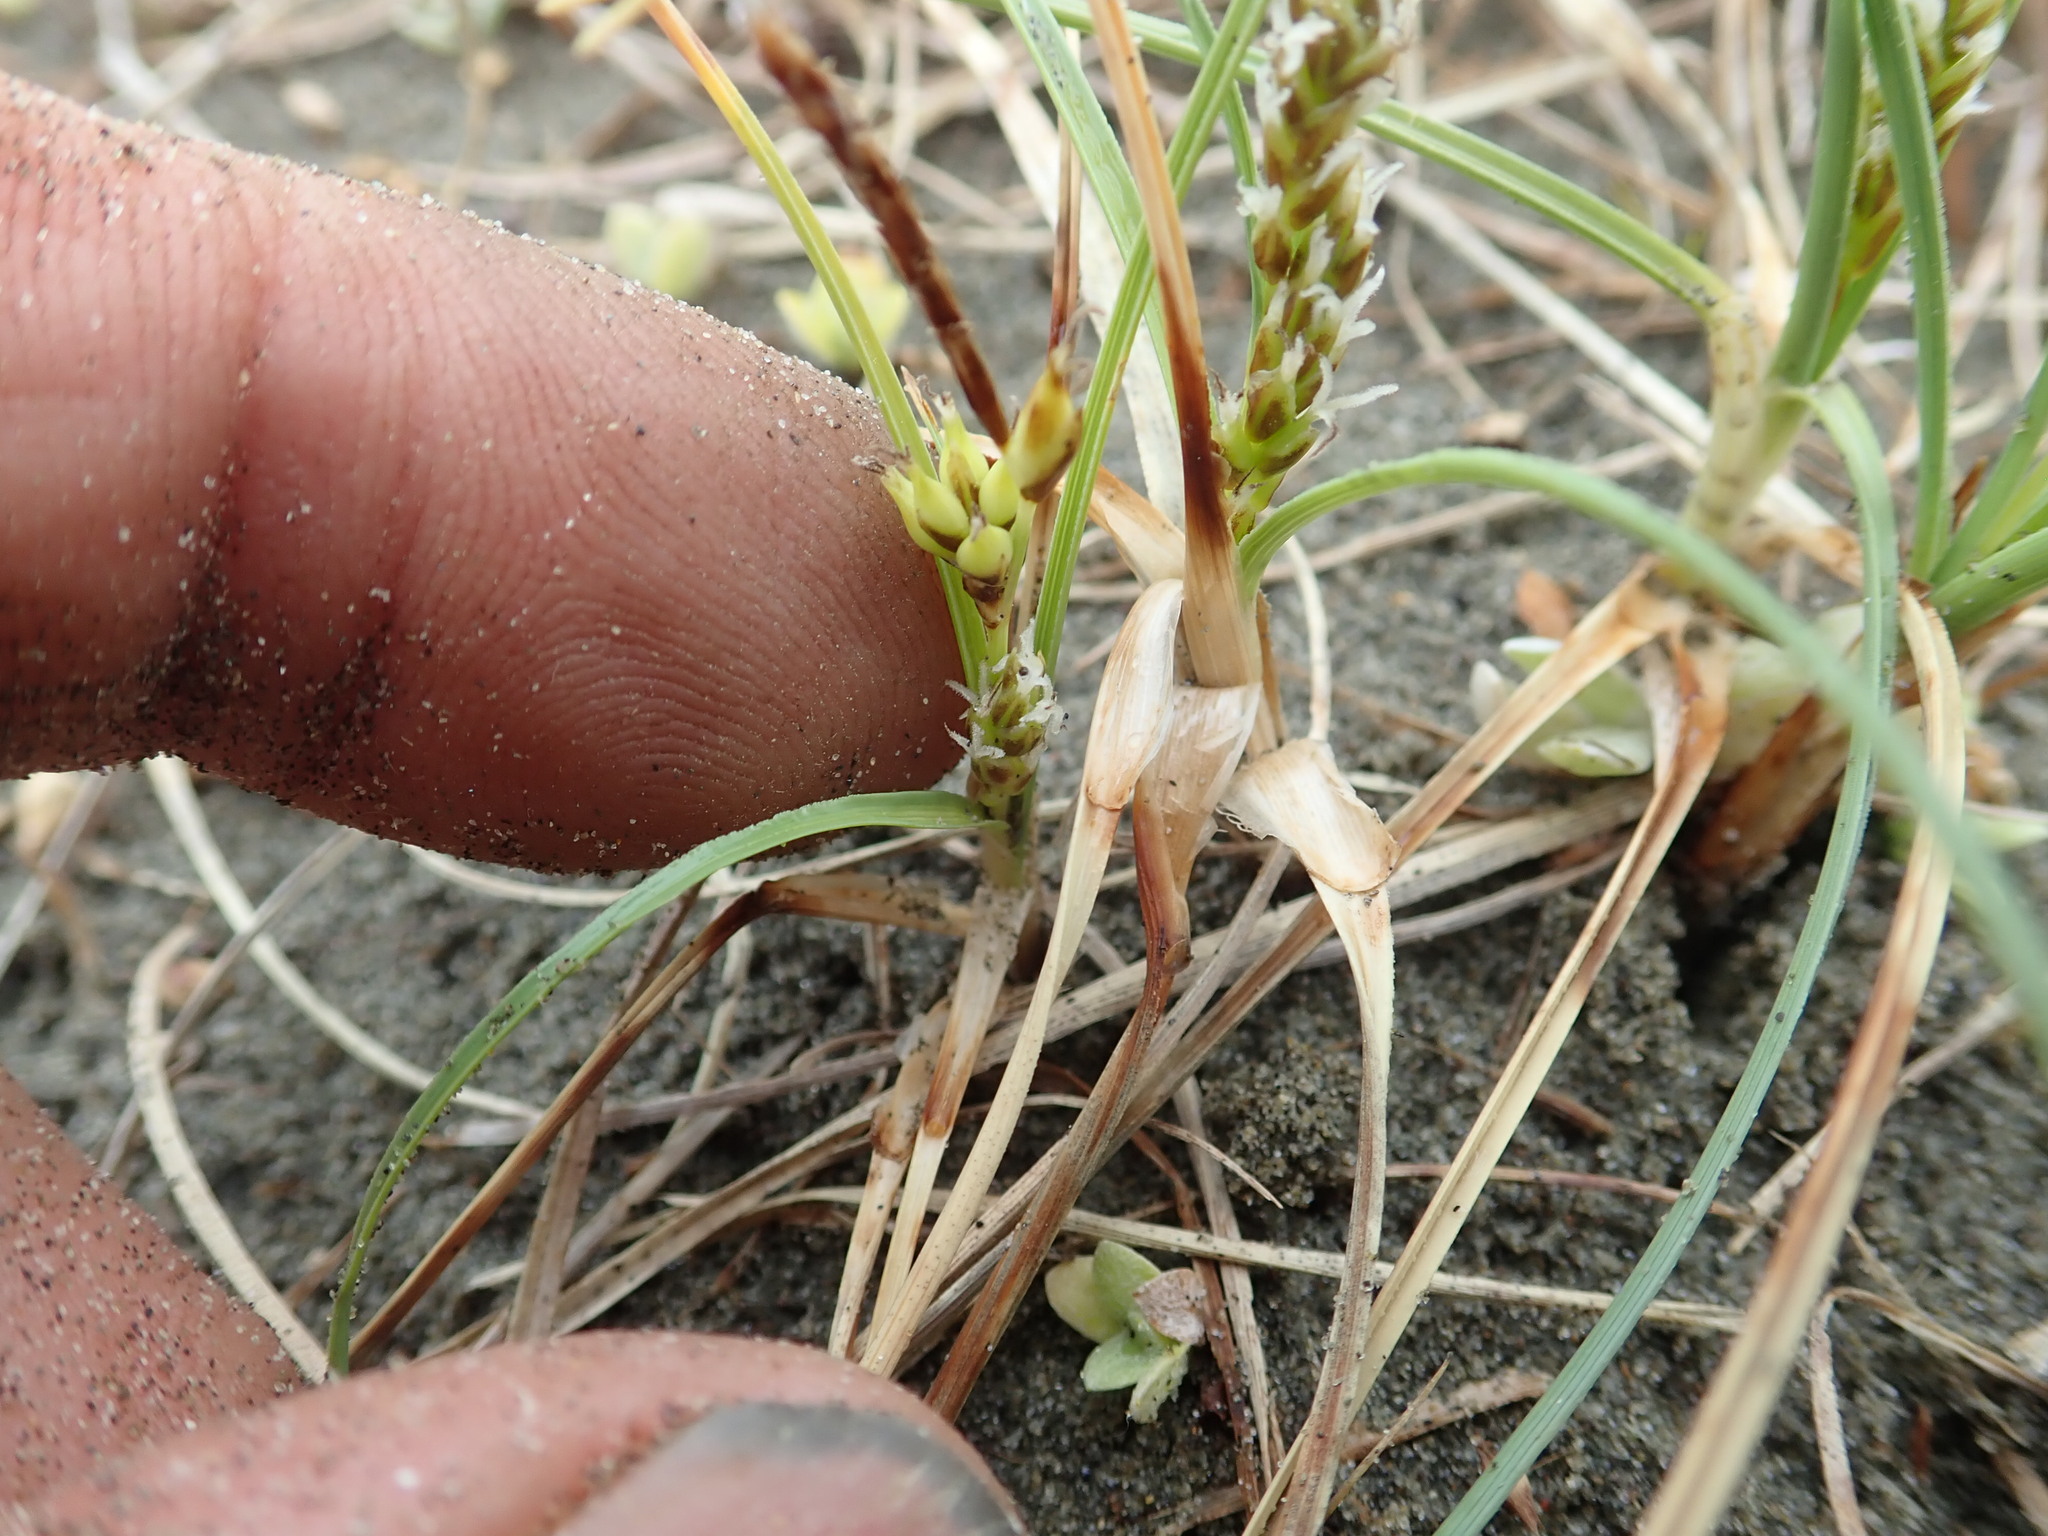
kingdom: Plantae
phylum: Tracheophyta
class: Liliopsida
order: Poales
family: Cyperaceae
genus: Carex
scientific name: Carex pumila
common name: Dwarf sedge
